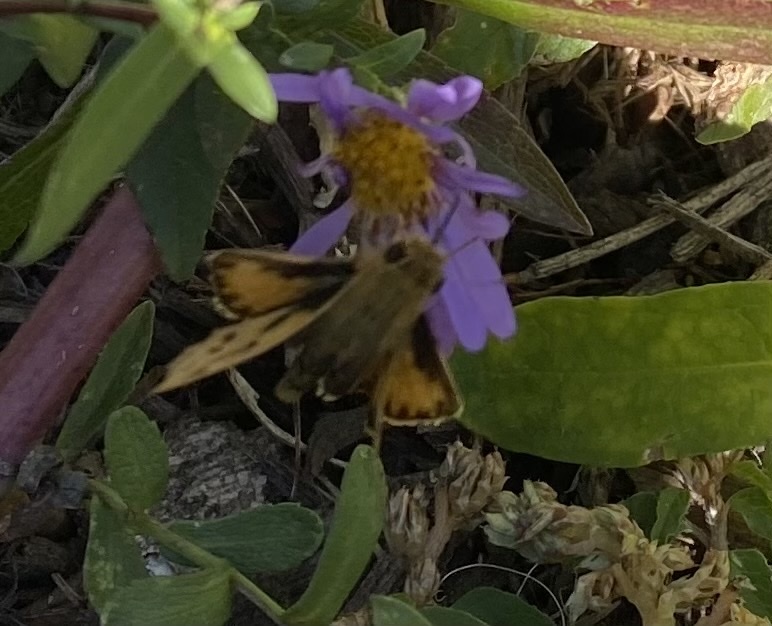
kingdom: Animalia
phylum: Arthropoda
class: Insecta
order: Lepidoptera
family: Hesperiidae
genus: Hylephila
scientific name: Hylephila phyleus
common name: Fiery skipper
